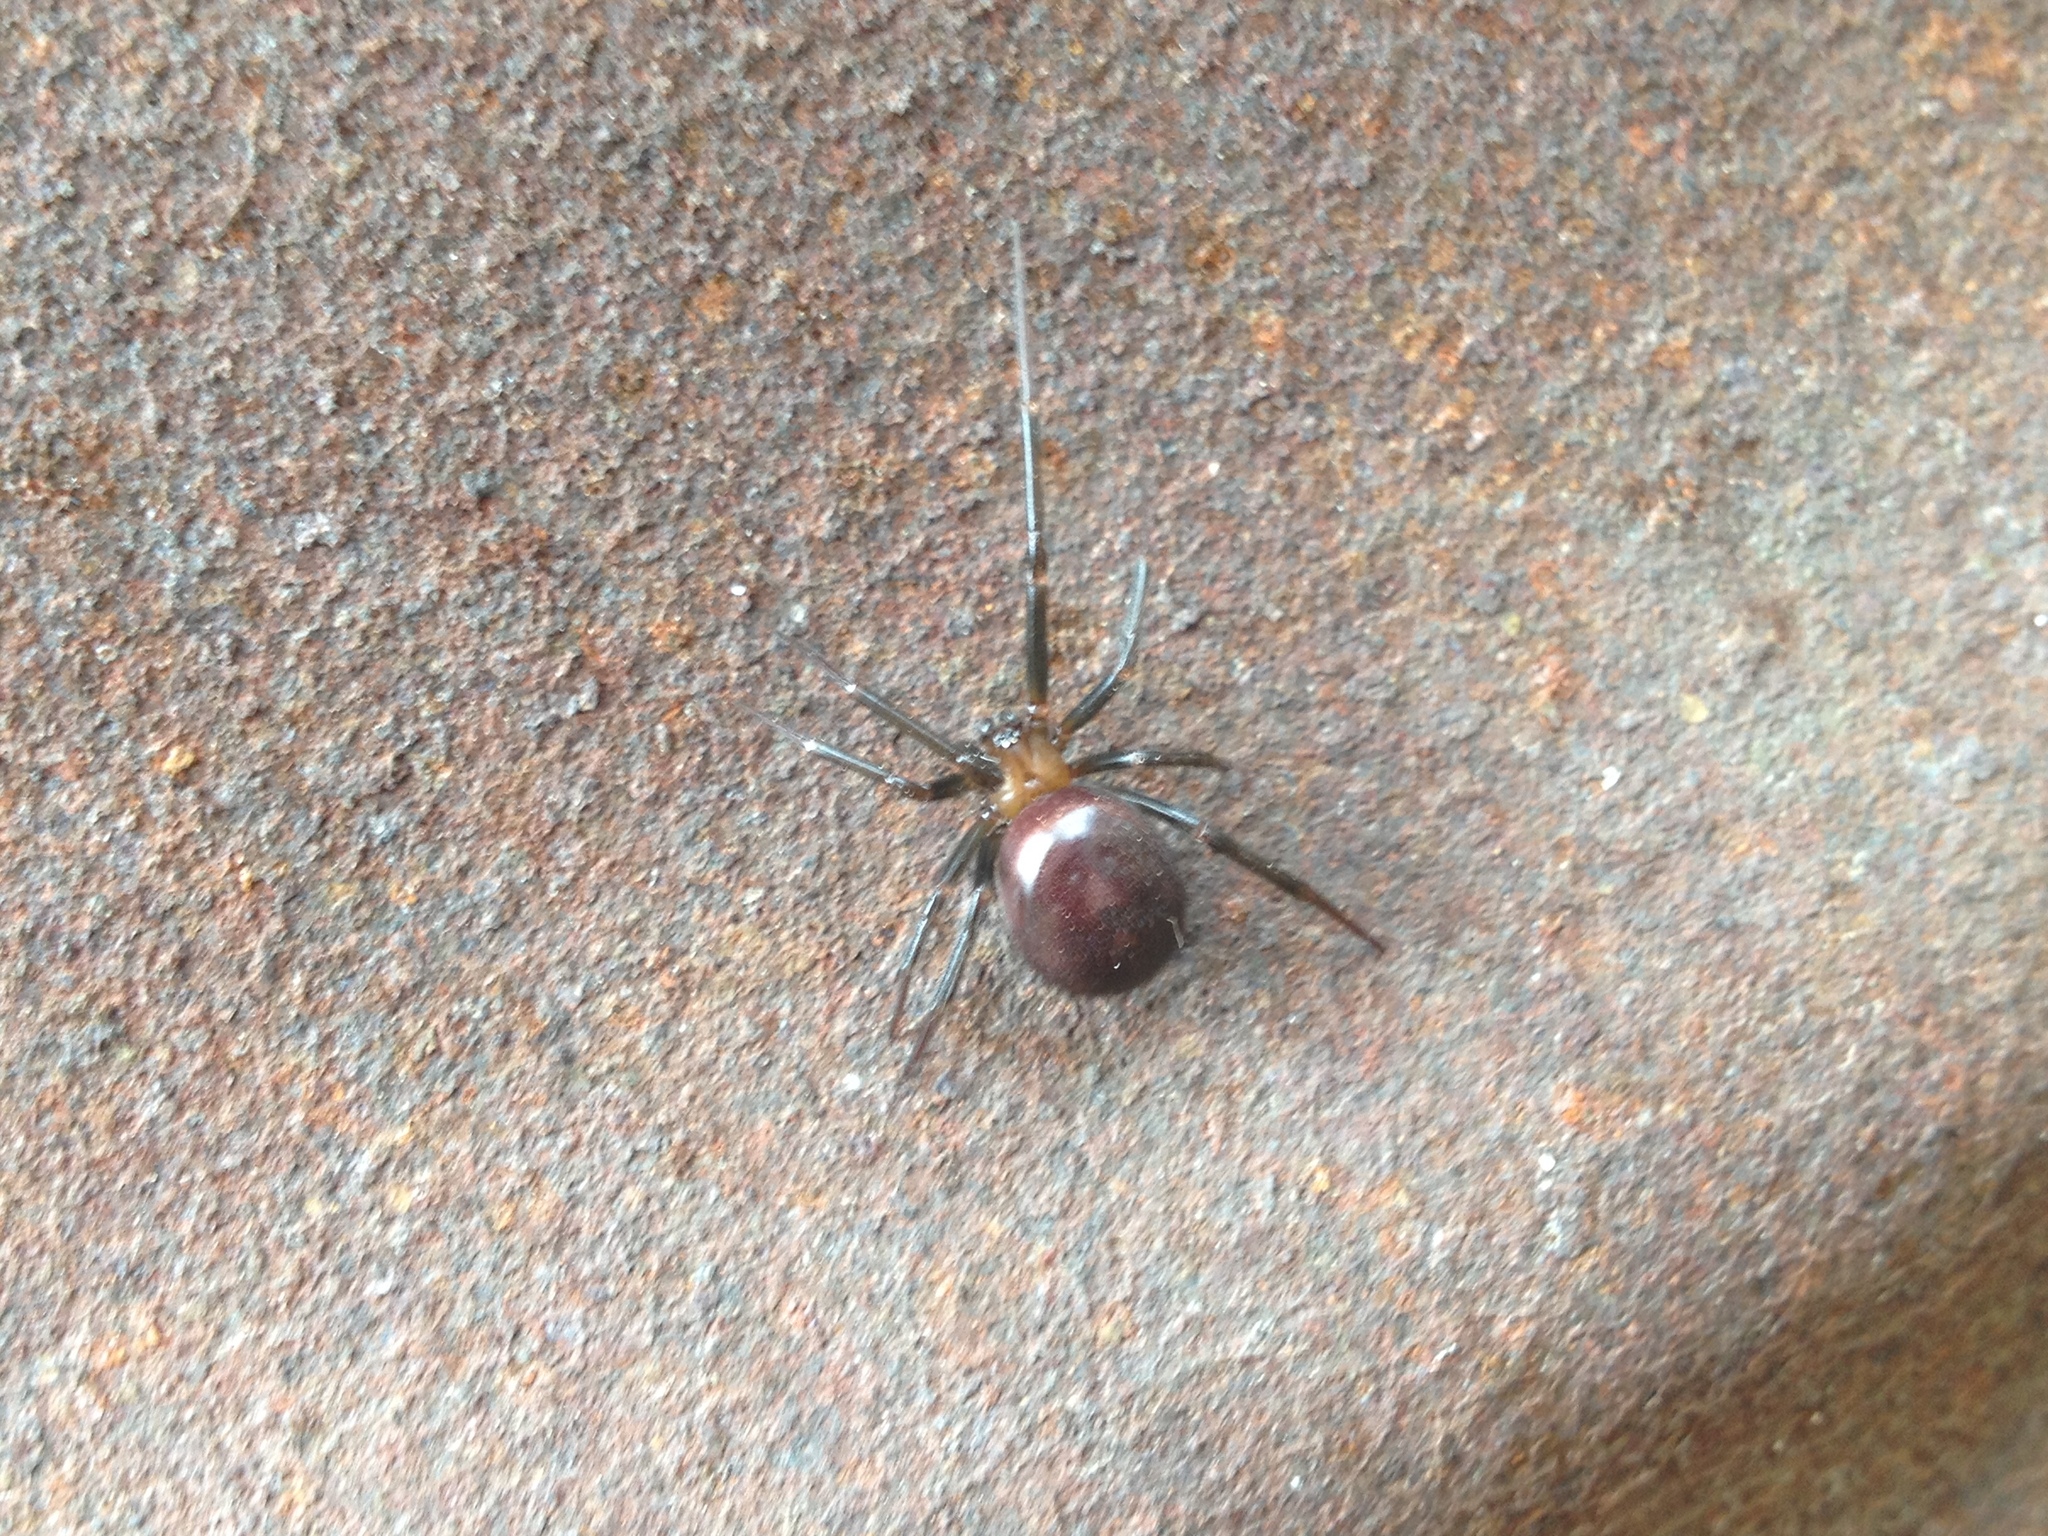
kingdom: Animalia
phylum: Arthropoda
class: Arachnida
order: Araneae
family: Theridiidae
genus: Steatoda
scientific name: Steatoda grossa
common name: False black widow
